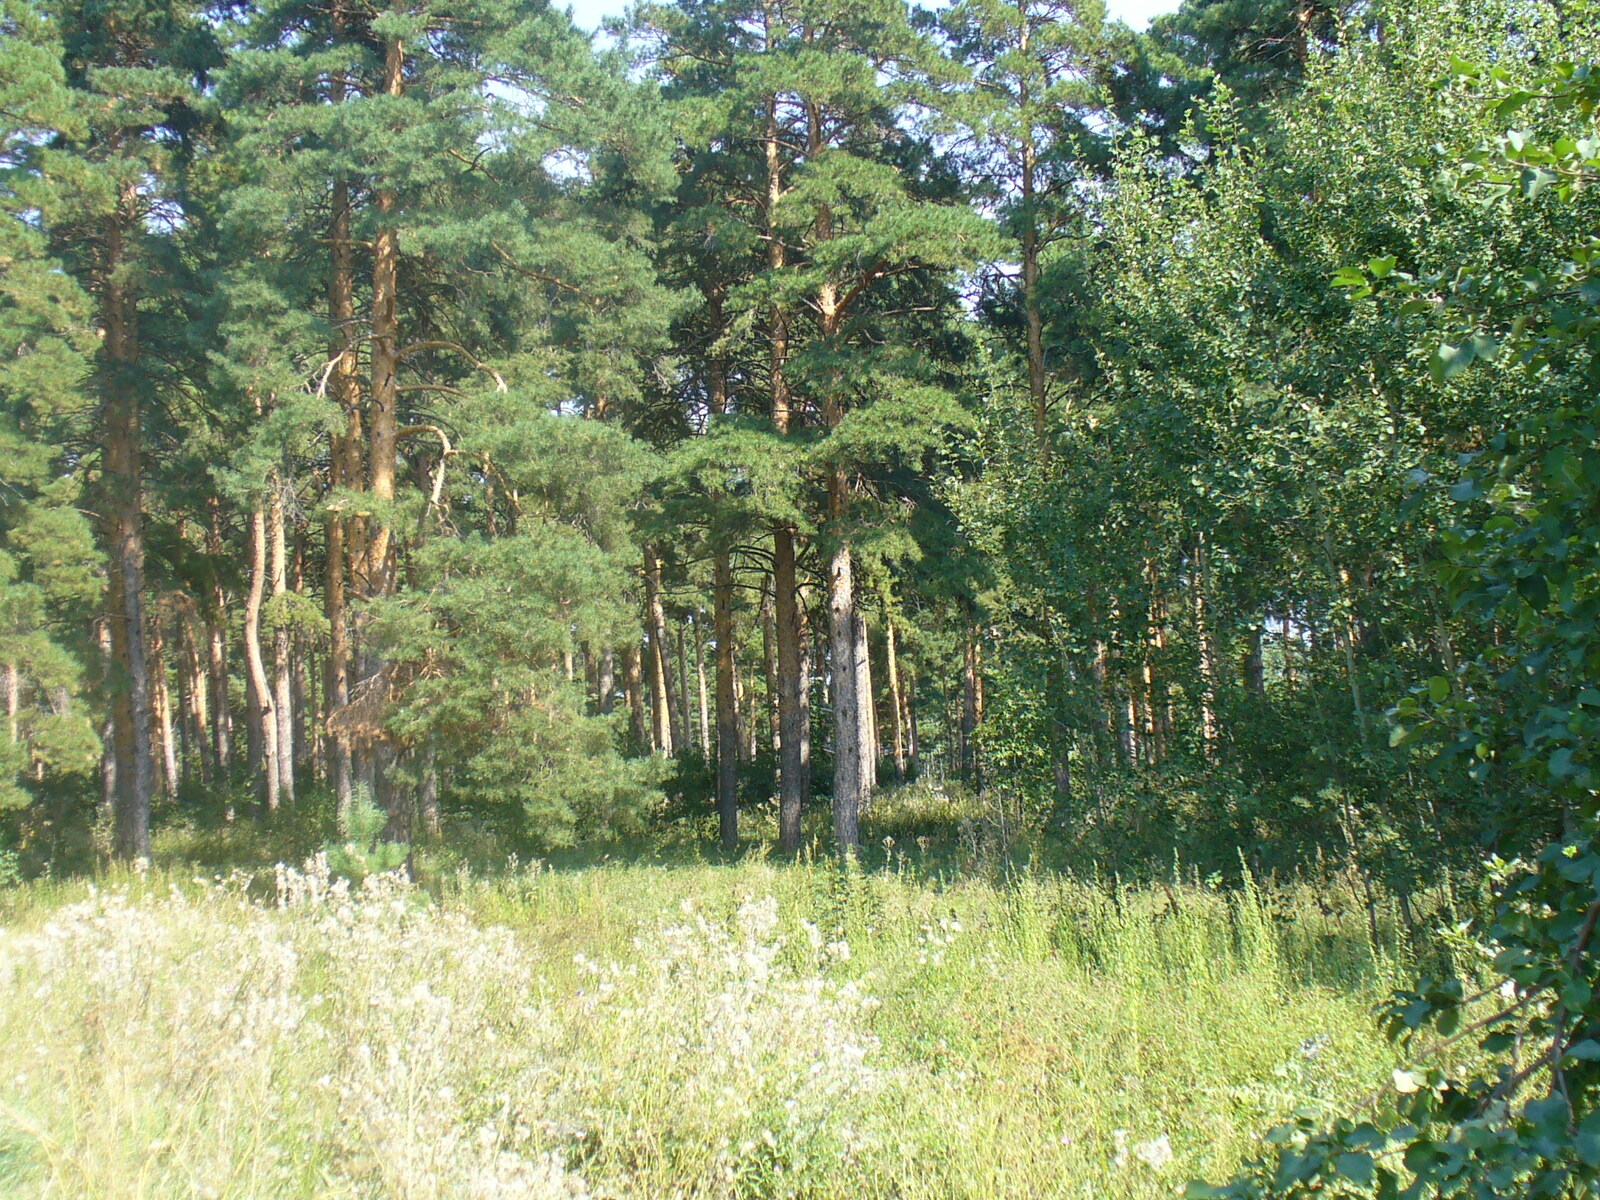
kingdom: Plantae
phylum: Tracheophyta
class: Pinopsida
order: Pinales
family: Pinaceae
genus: Pinus
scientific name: Pinus sylvestris
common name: Scots pine
